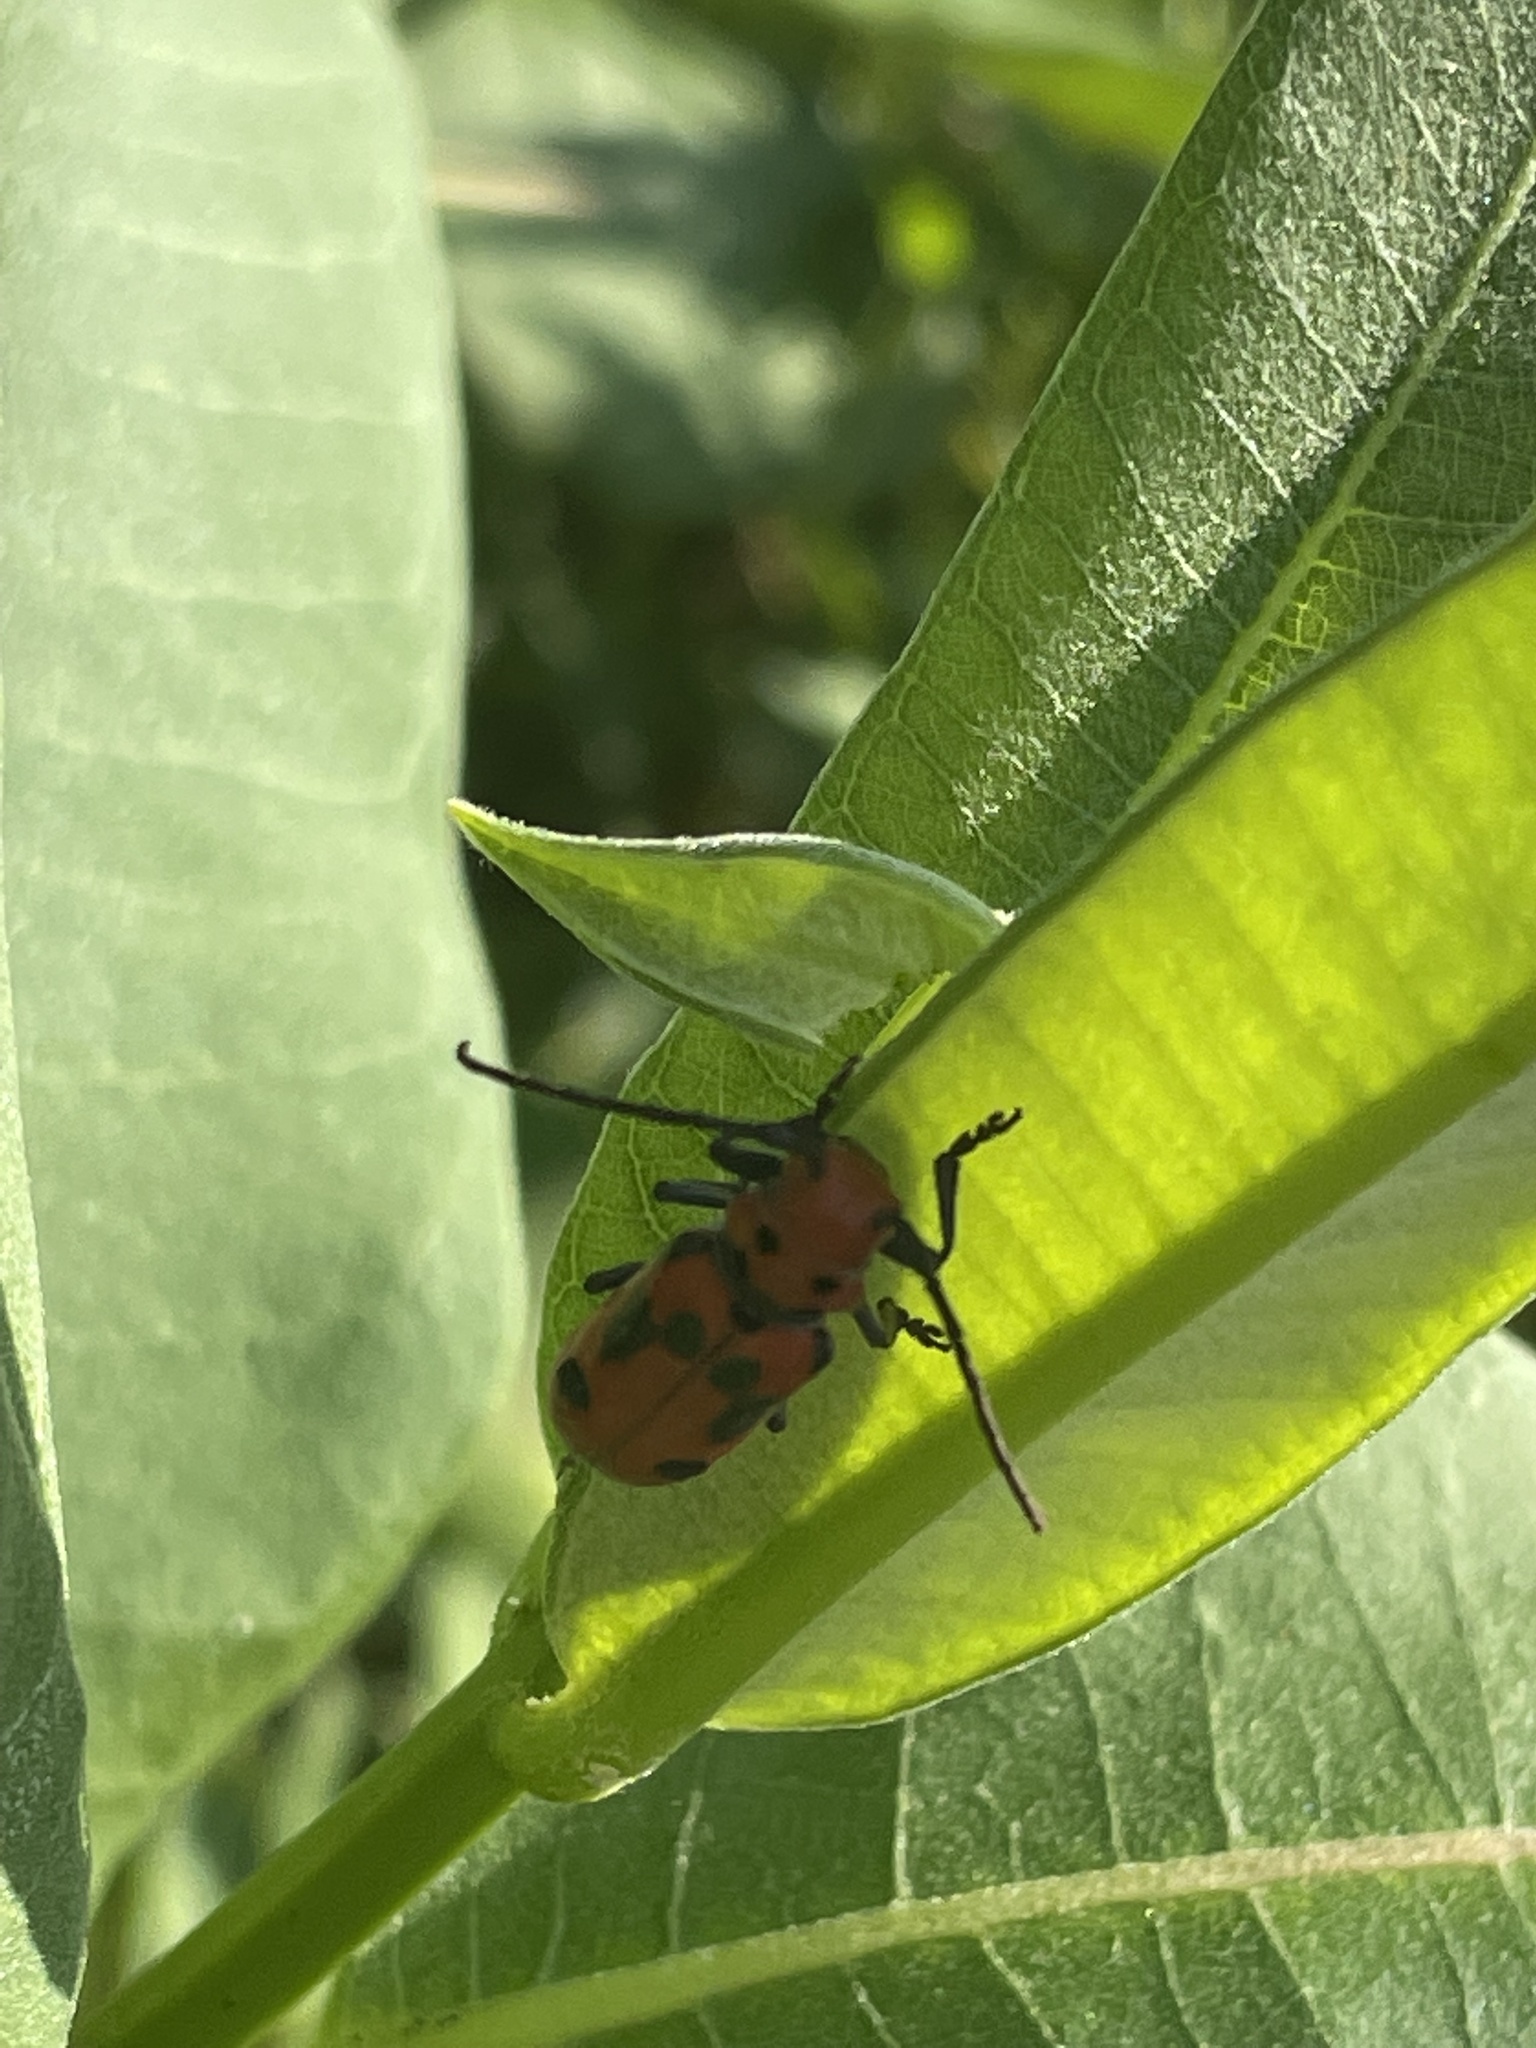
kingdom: Animalia
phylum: Arthropoda
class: Insecta
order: Coleoptera
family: Cerambycidae
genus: Tetraopes
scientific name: Tetraopes tetrophthalmus
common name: Red milkweed beetle
